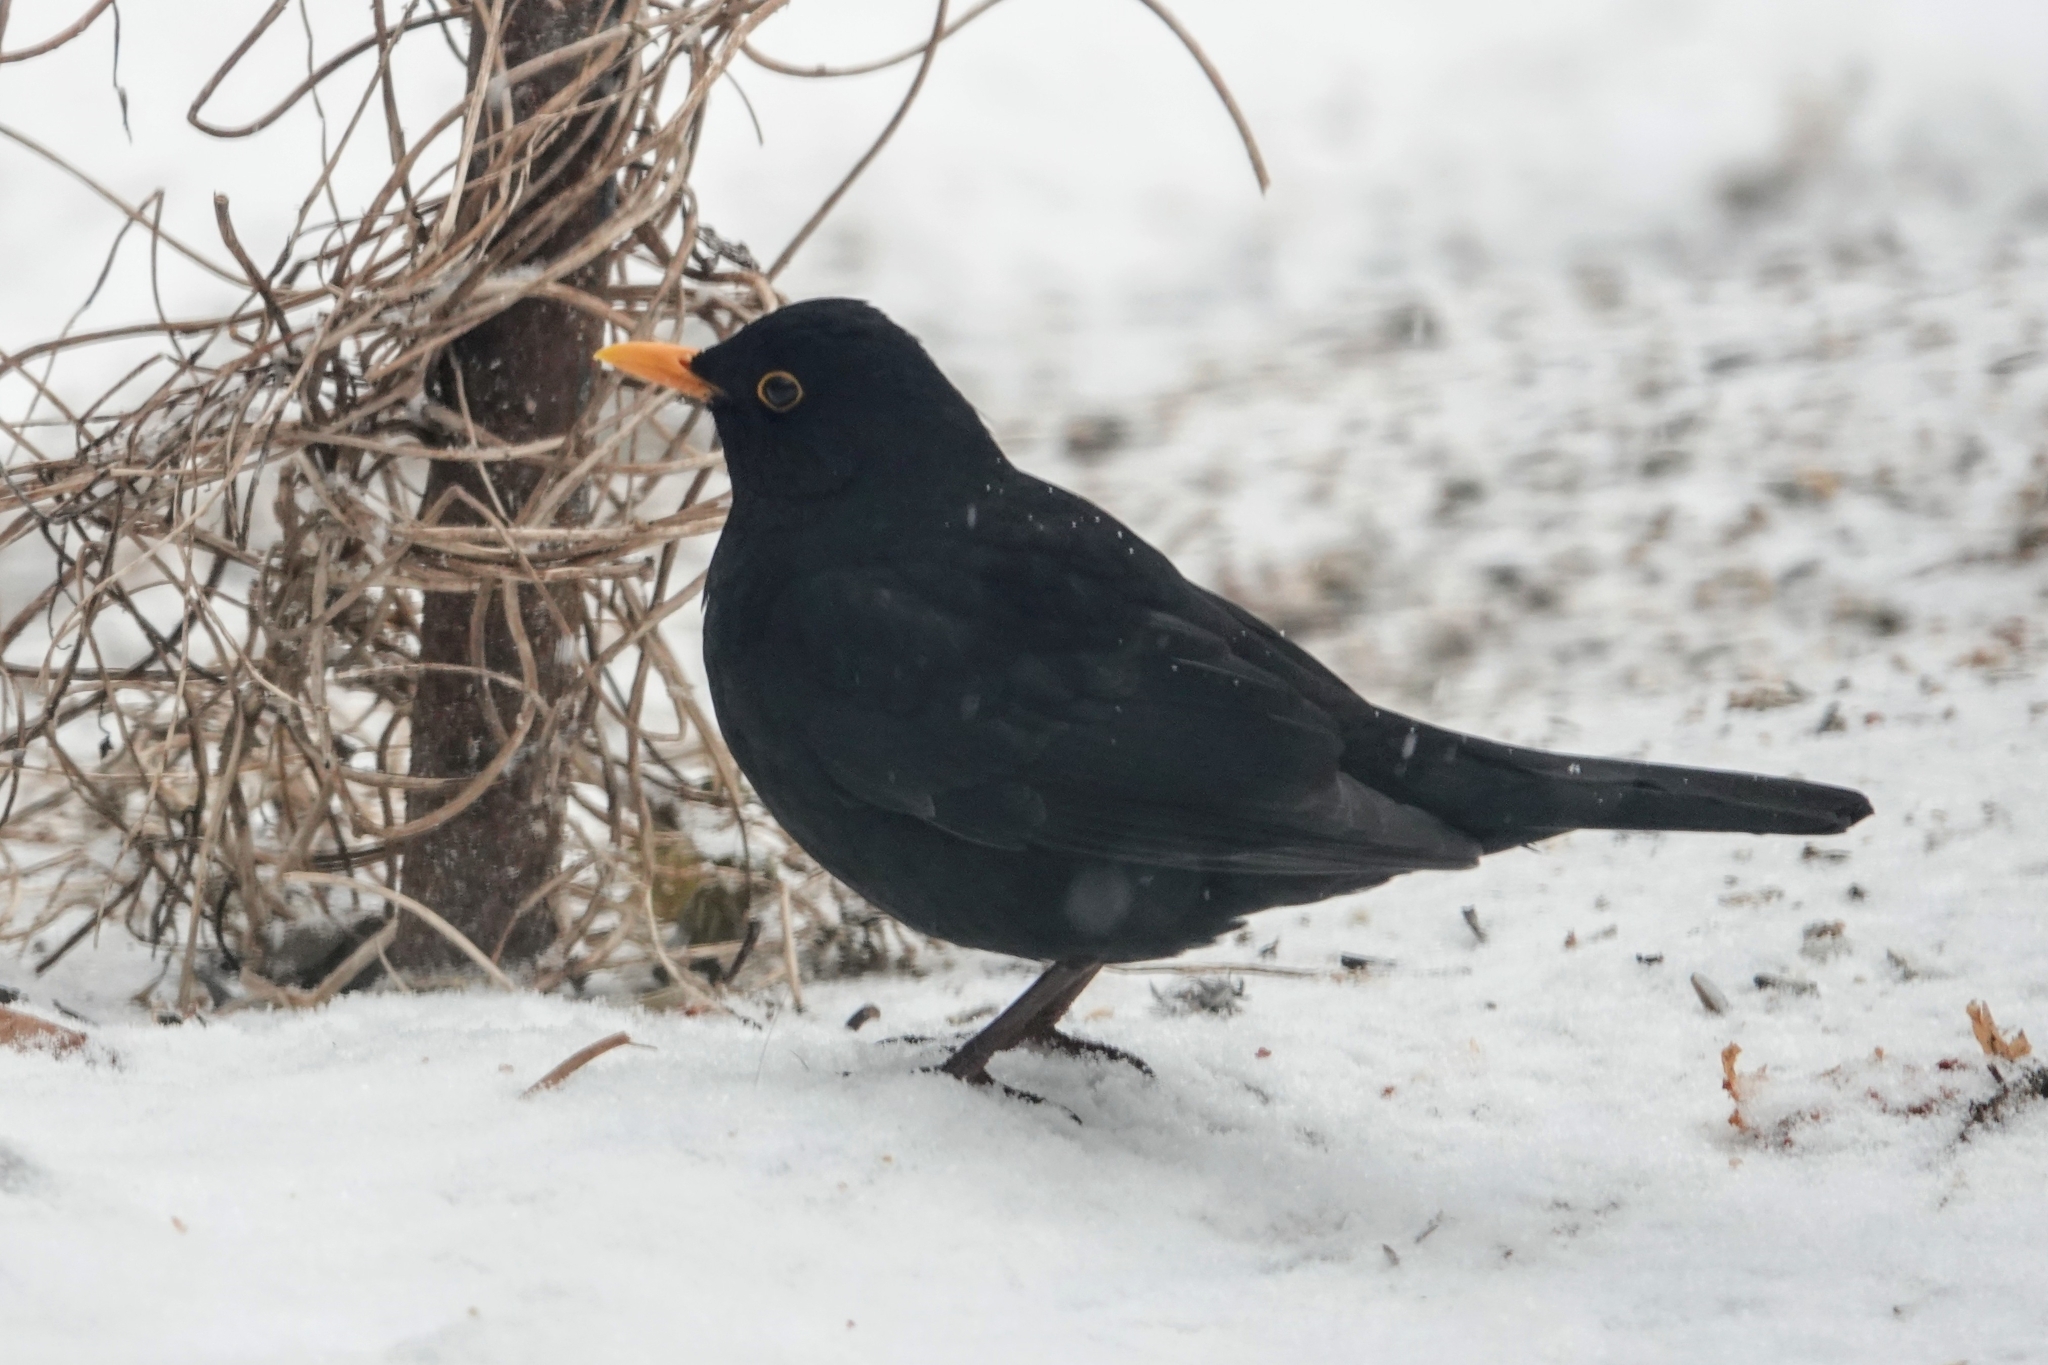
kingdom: Animalia
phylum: Chordata
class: Aves
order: Passeriformes
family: Turdidae
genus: Turdus
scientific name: Turdus merula
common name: Common blackbird
